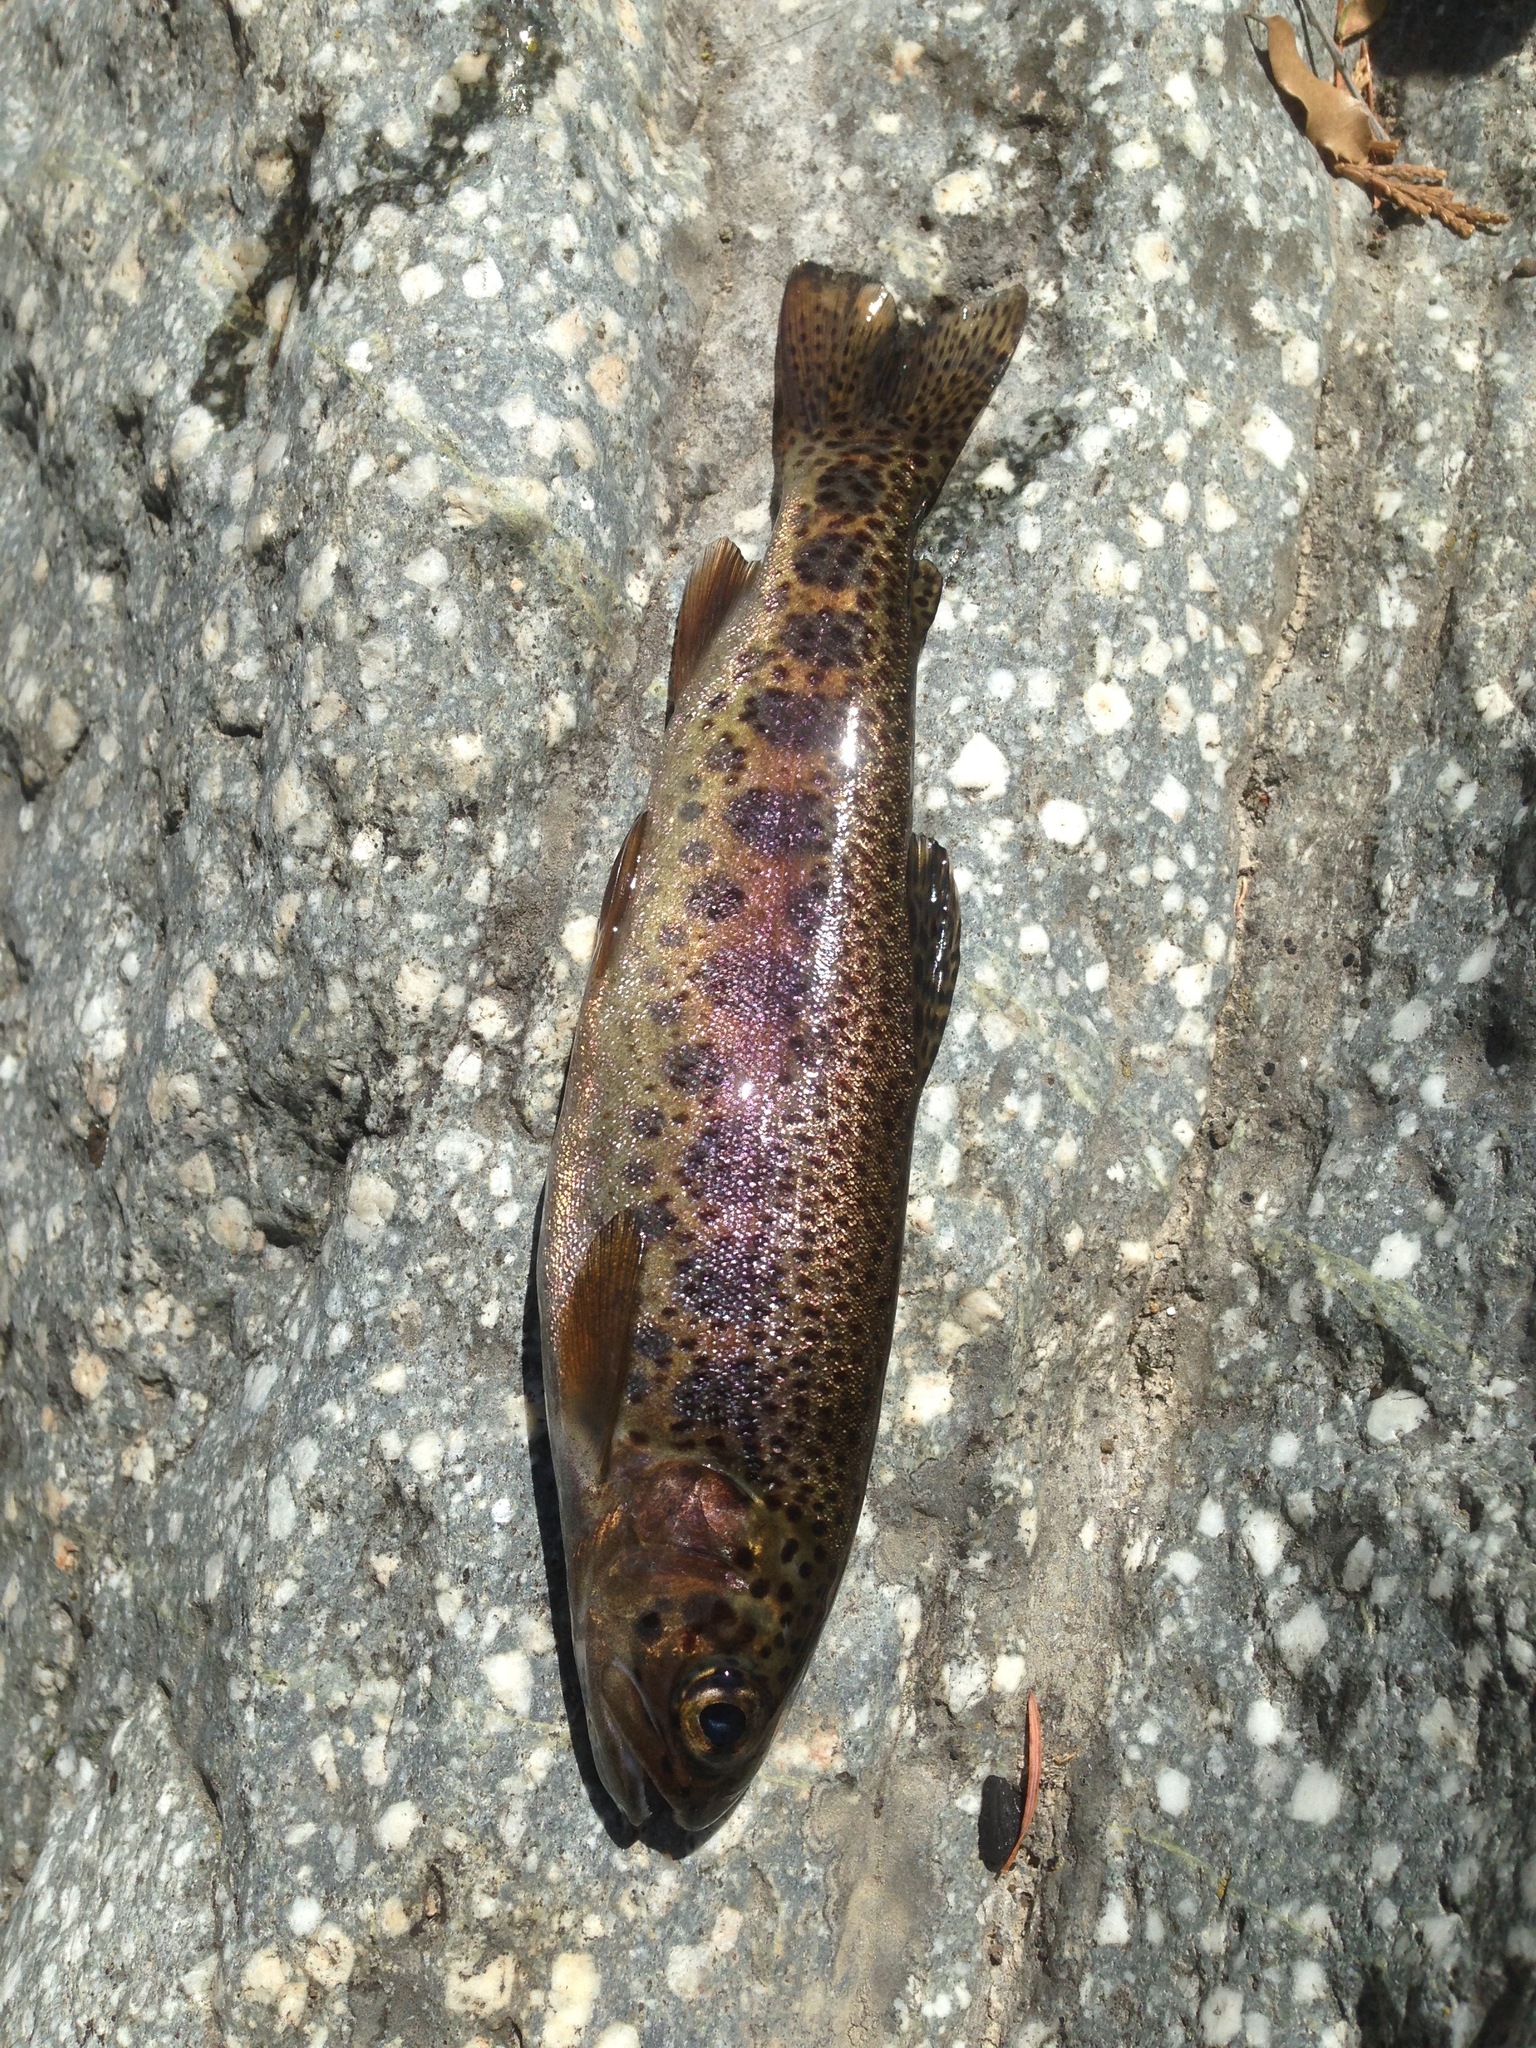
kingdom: Animalia
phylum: Chordata
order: Salmoniformes
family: Salmonidae
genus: Oncorhynchus
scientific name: Oncorhynchus mykiss
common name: Rainbow trout
